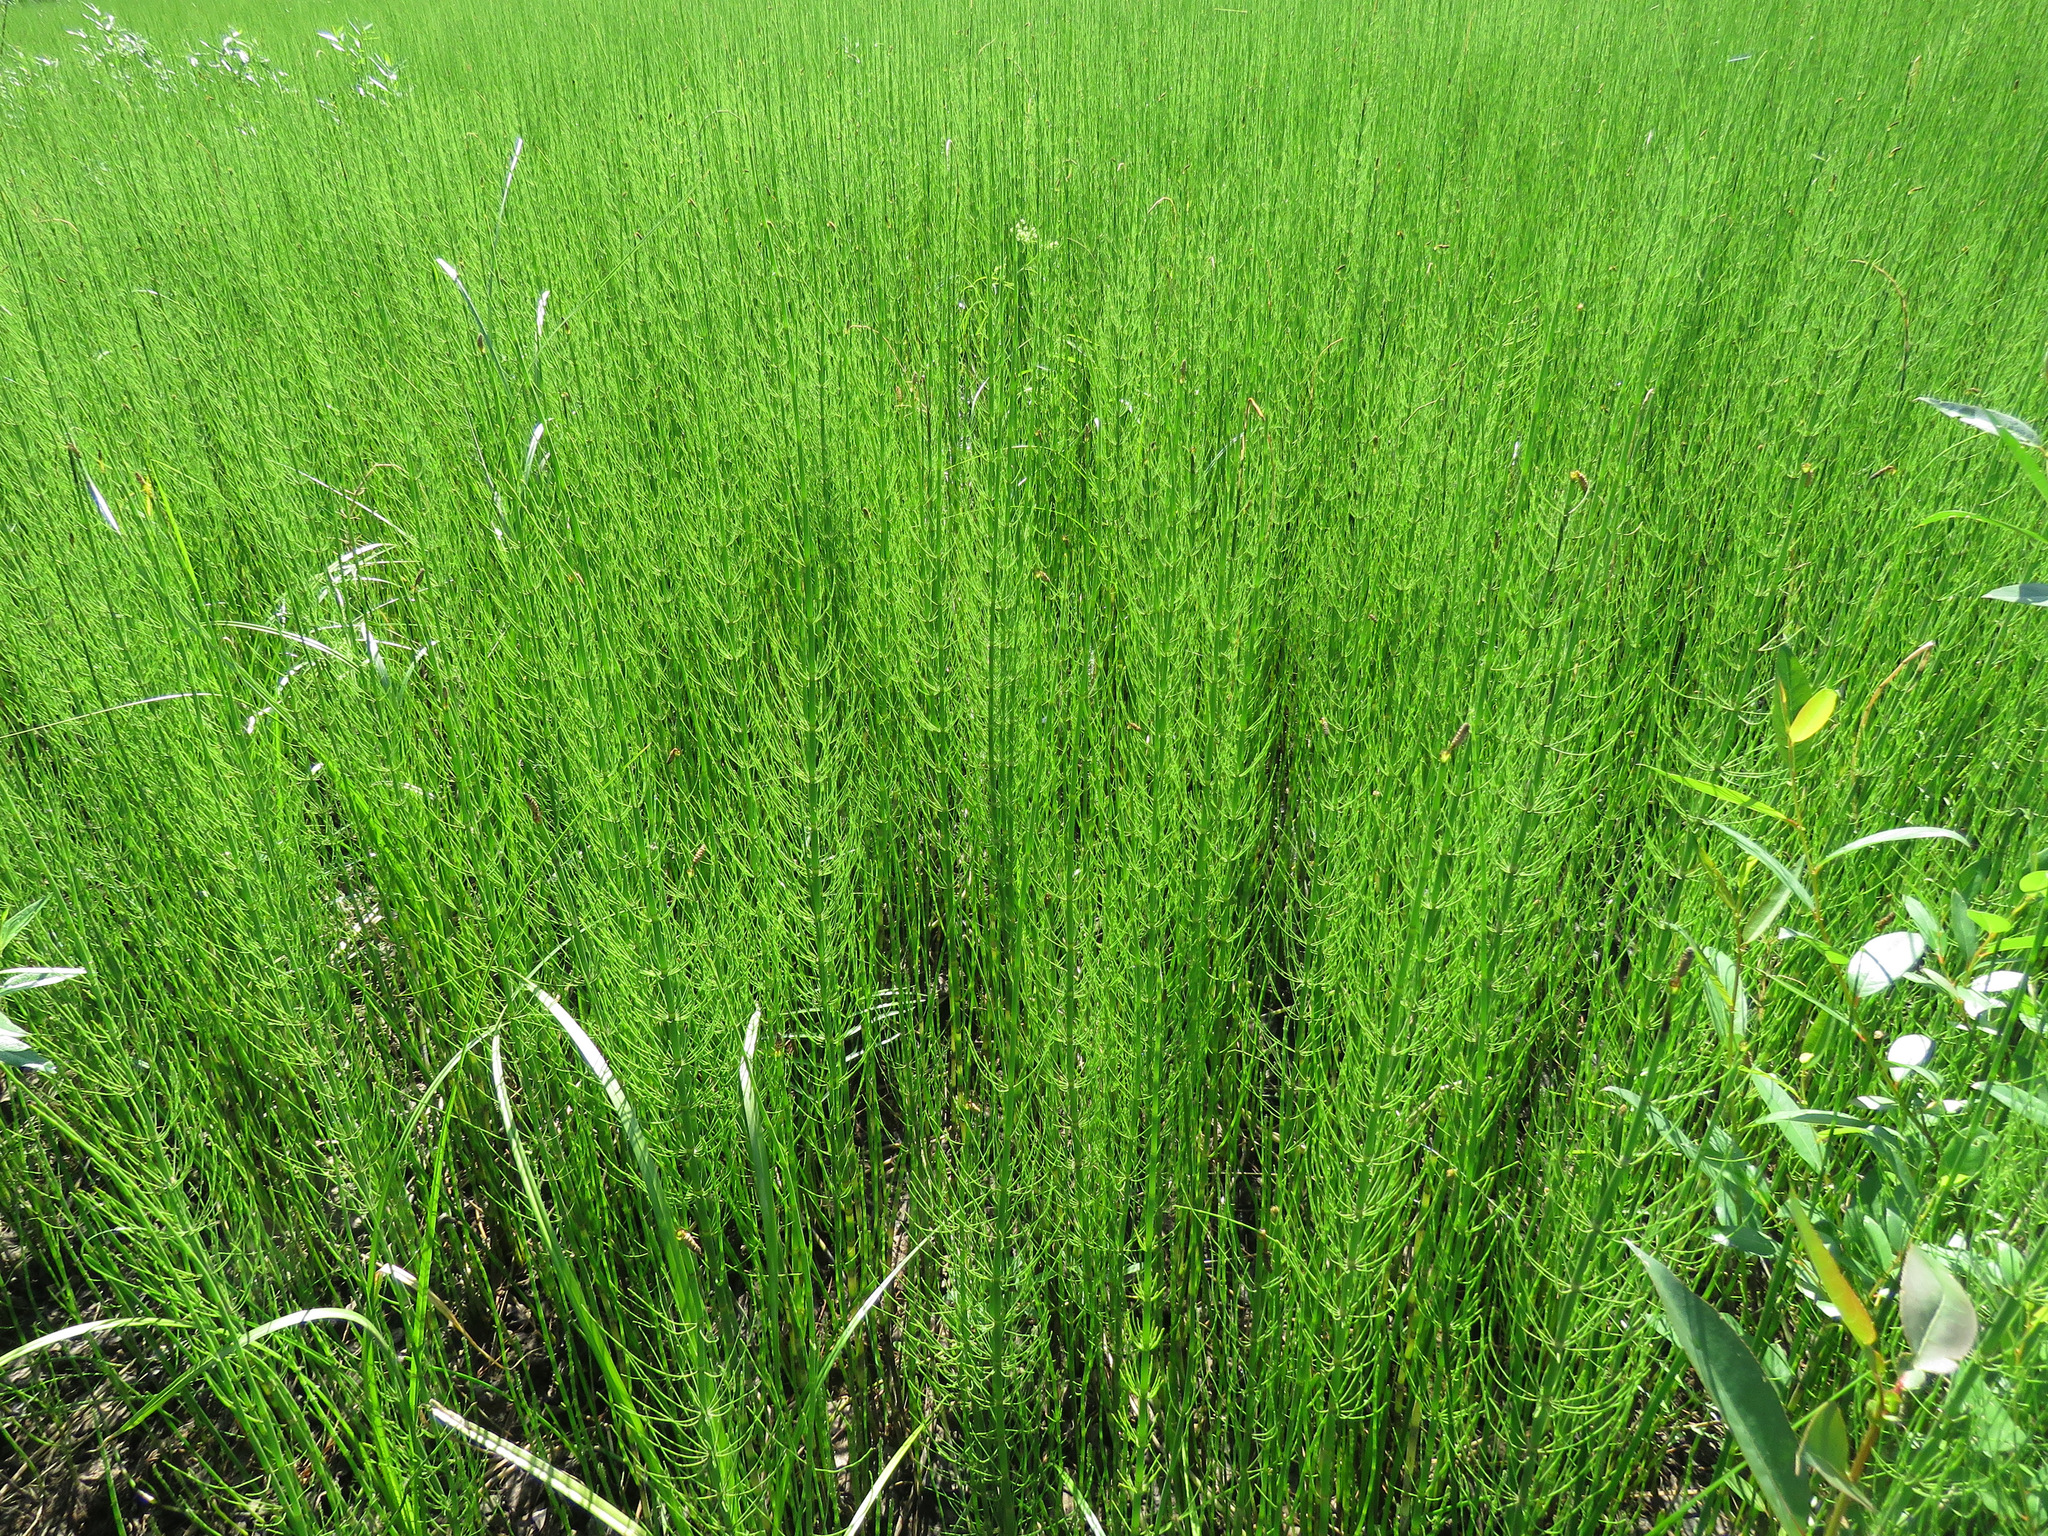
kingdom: Plantae
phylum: Tracheophyta
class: Polypodiopsida
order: Equisetales
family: Equisetaceae
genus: Equisetum
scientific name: Equisetum fluviatile
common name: Water horsetail
